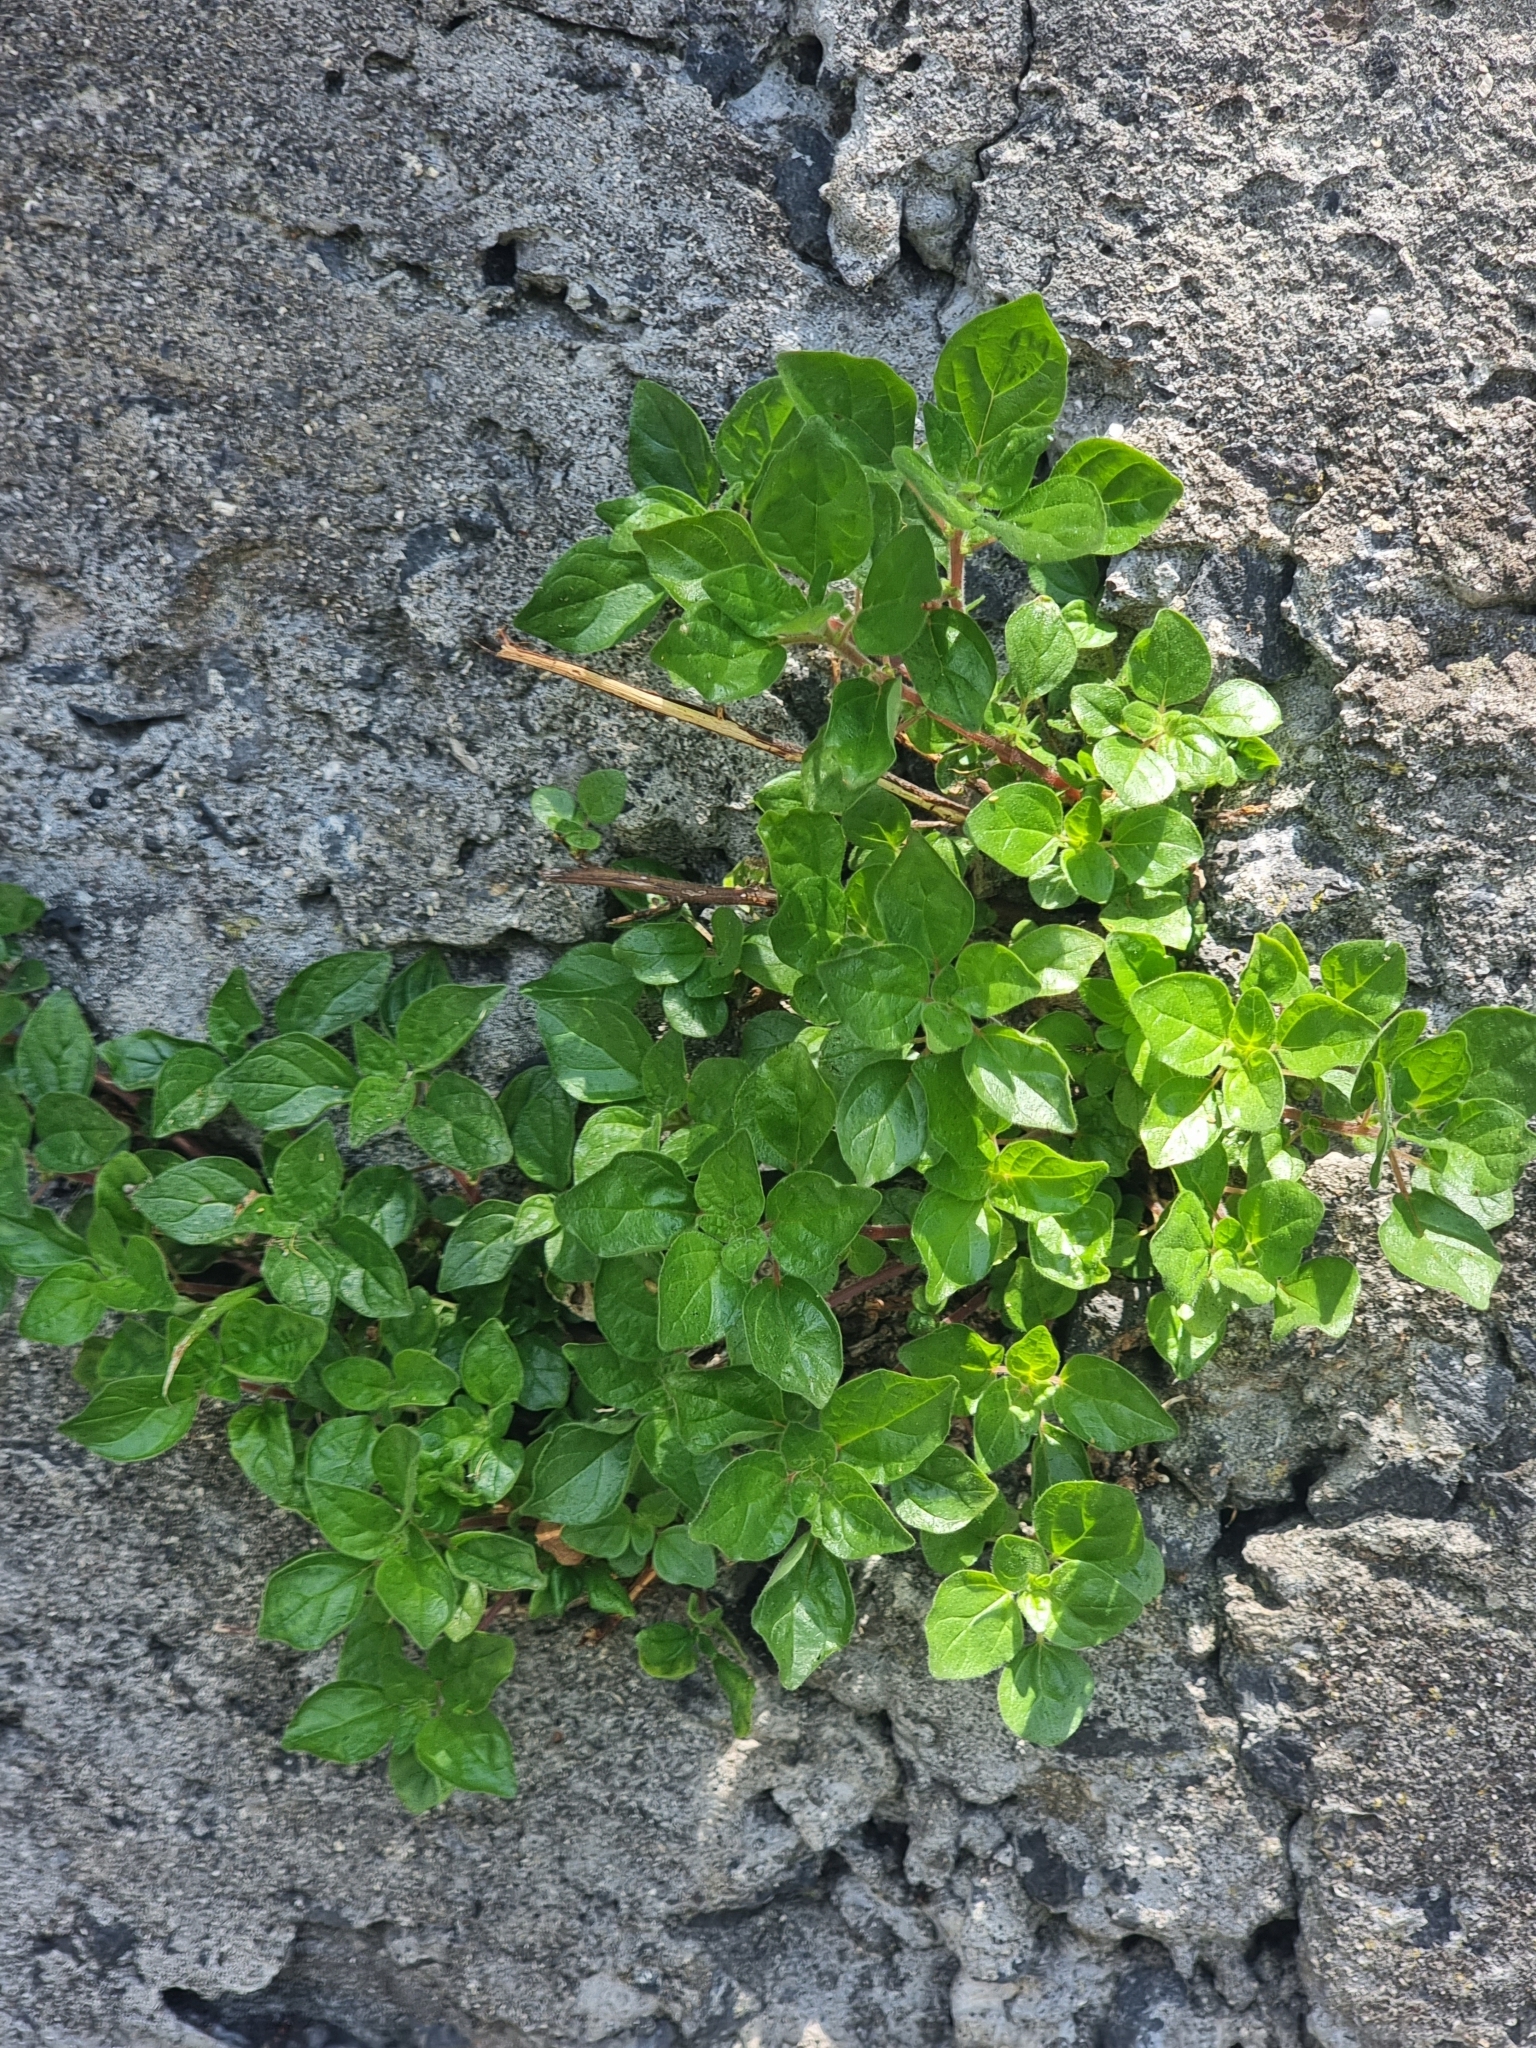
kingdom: Plantae
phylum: Tracheophyta
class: Magnoliopsida
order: Rosales
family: Urticaceae
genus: Parietaria
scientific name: Parietaria judaica
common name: Pellitory-of-the-wall
